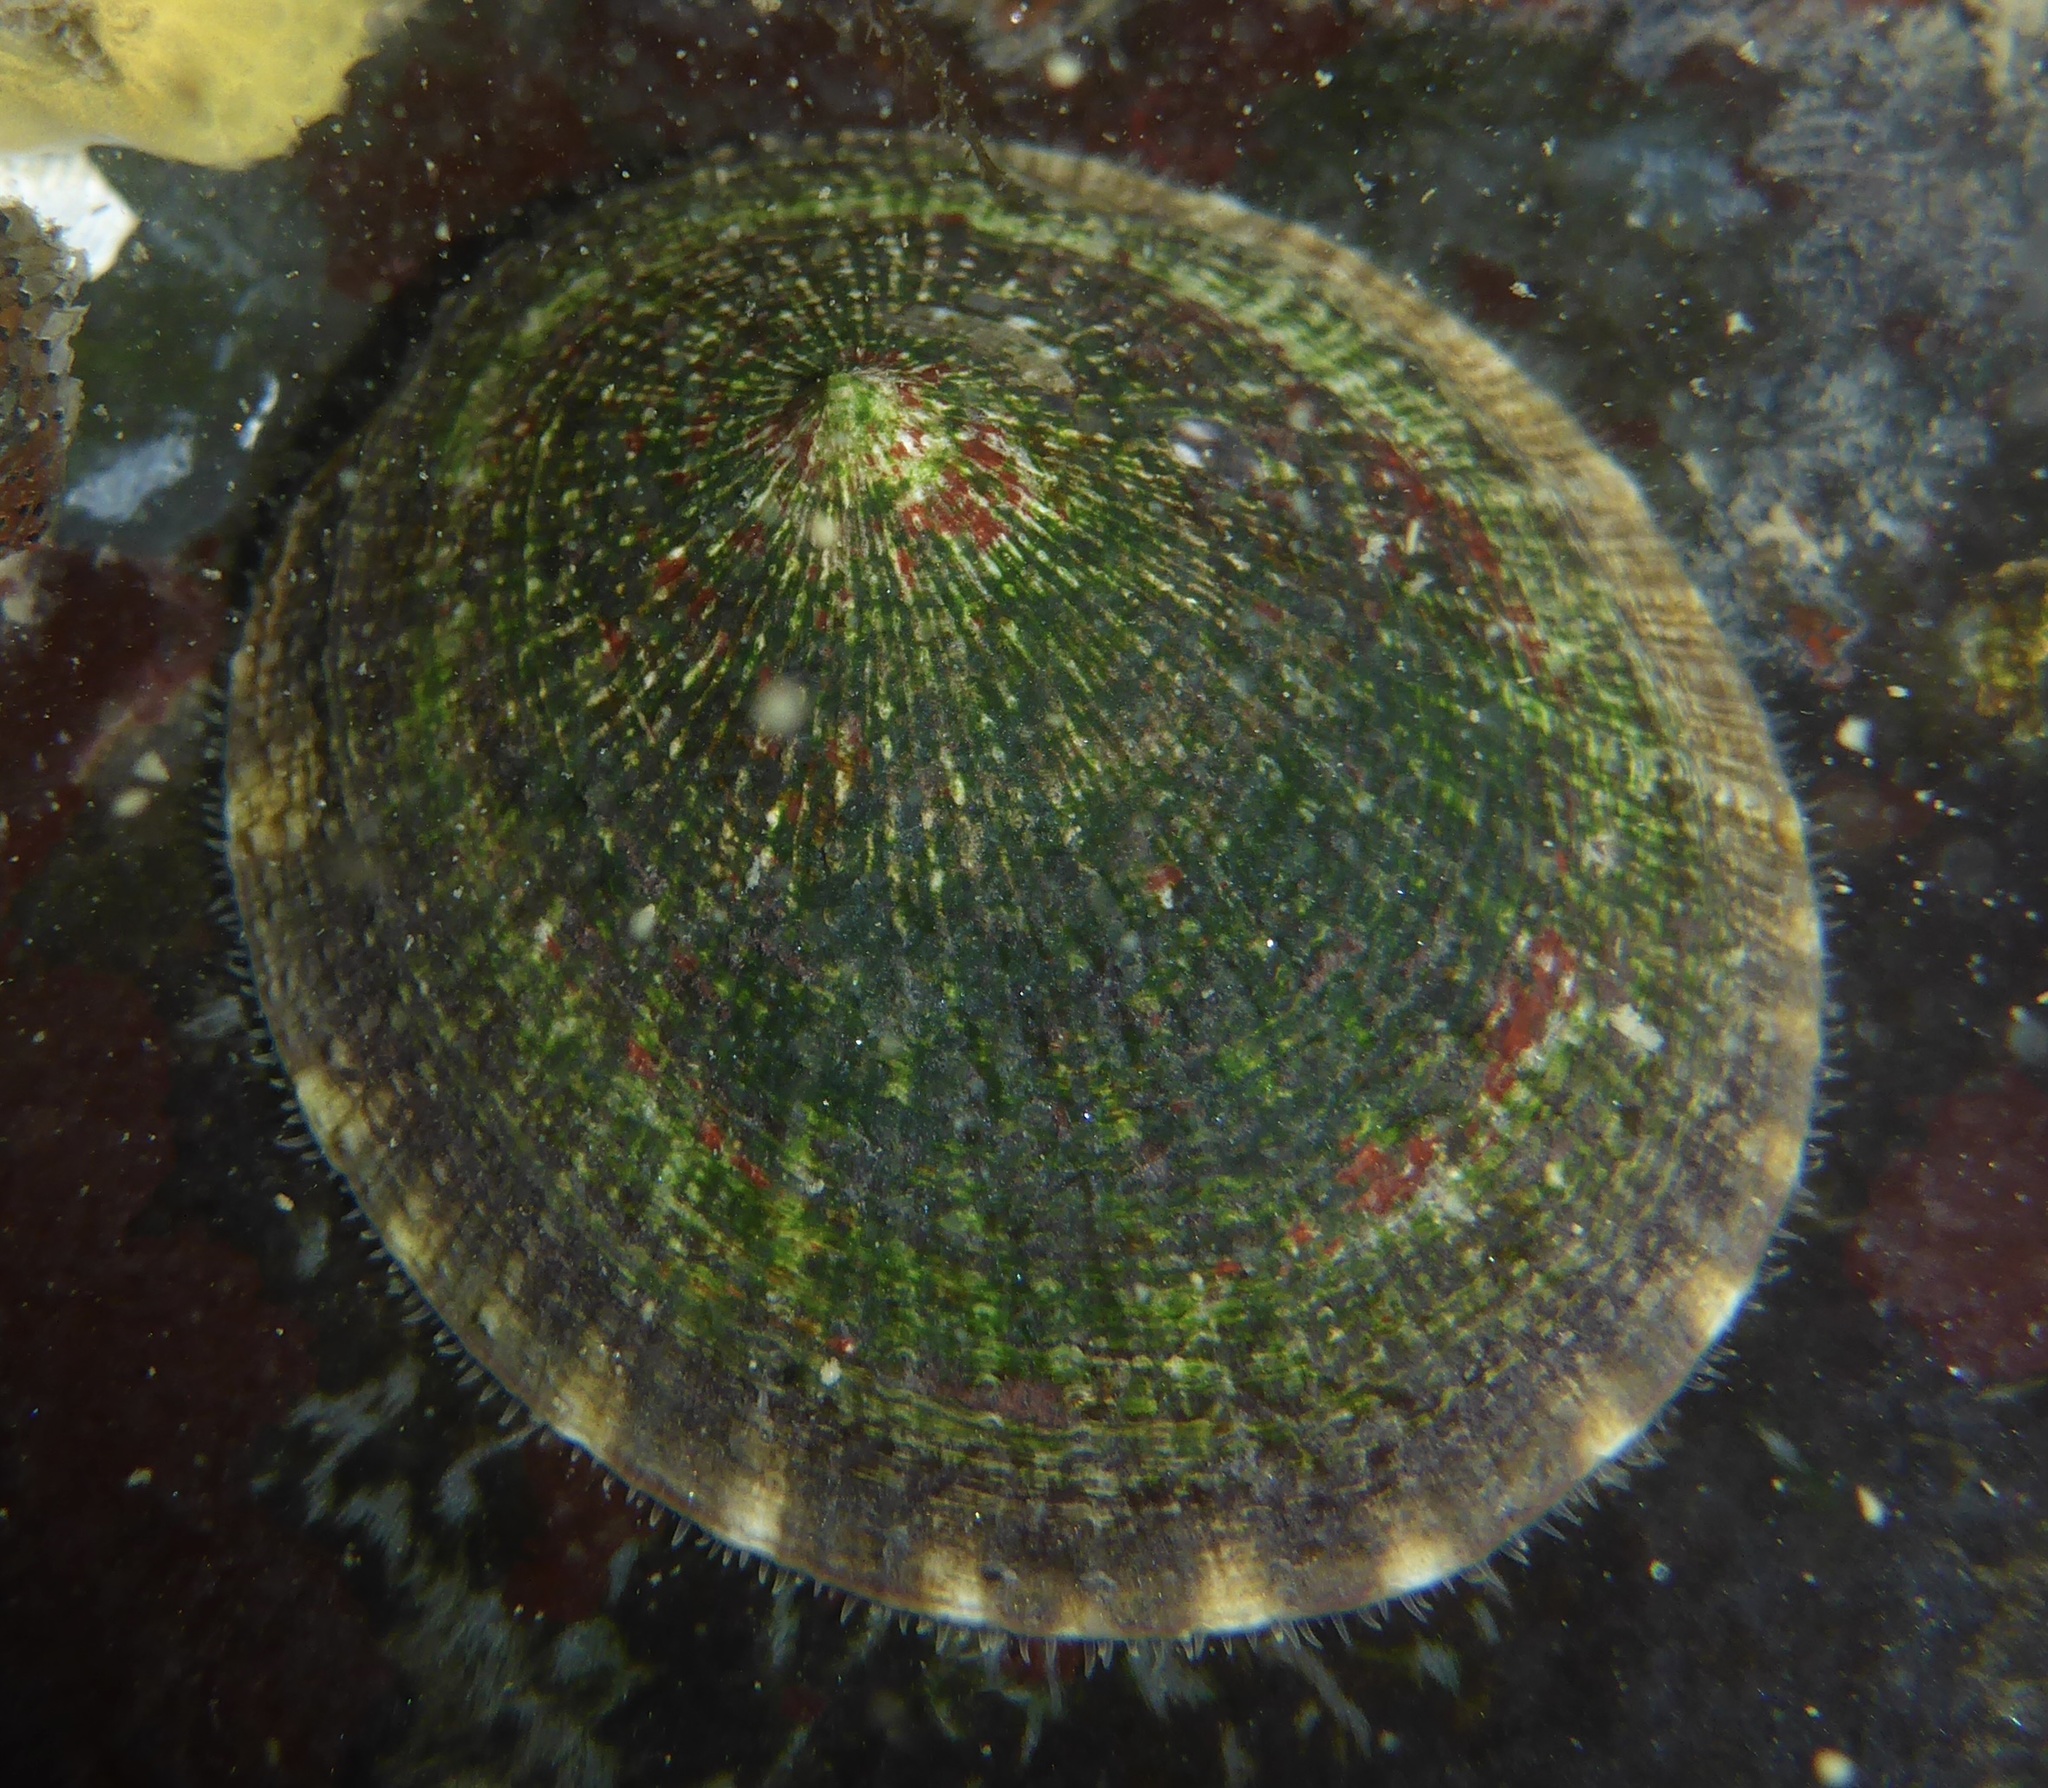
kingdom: Animalia
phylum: Mollusca
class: Gastropoda
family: Lottiidae
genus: Lottia
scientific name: Lottia limatula
